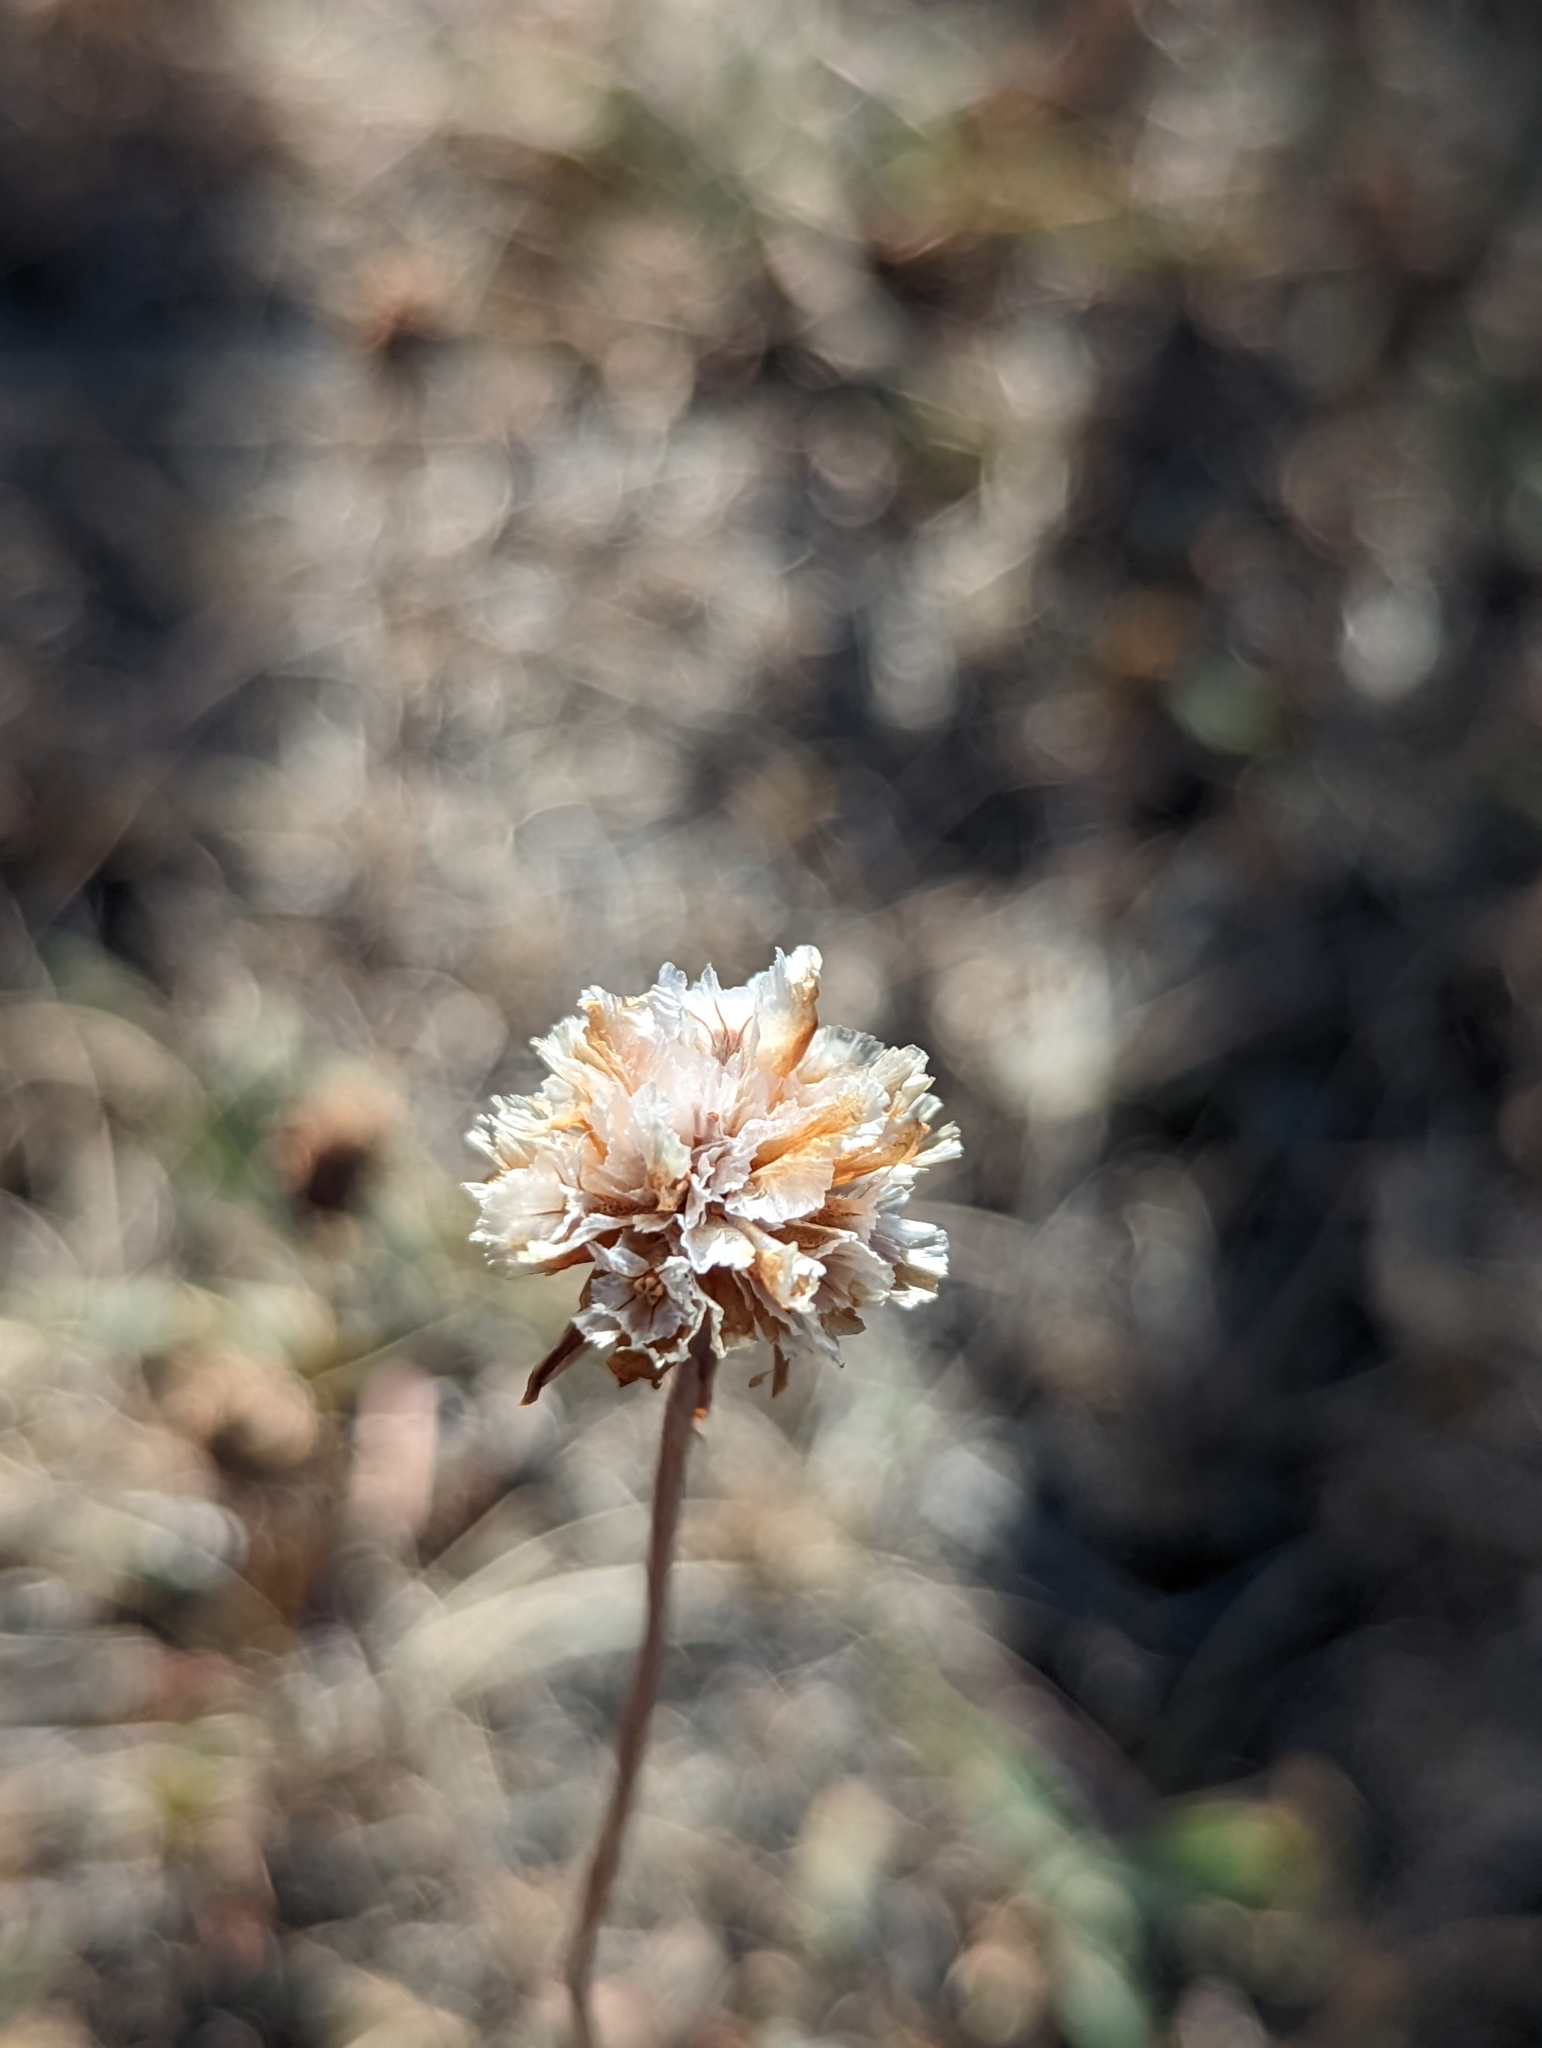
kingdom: Plantae
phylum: Tracheophyta
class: Magnoliopsida
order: Caryophyllales
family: Plumbaginaceae
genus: Armeria
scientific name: Armeria curvifolia
